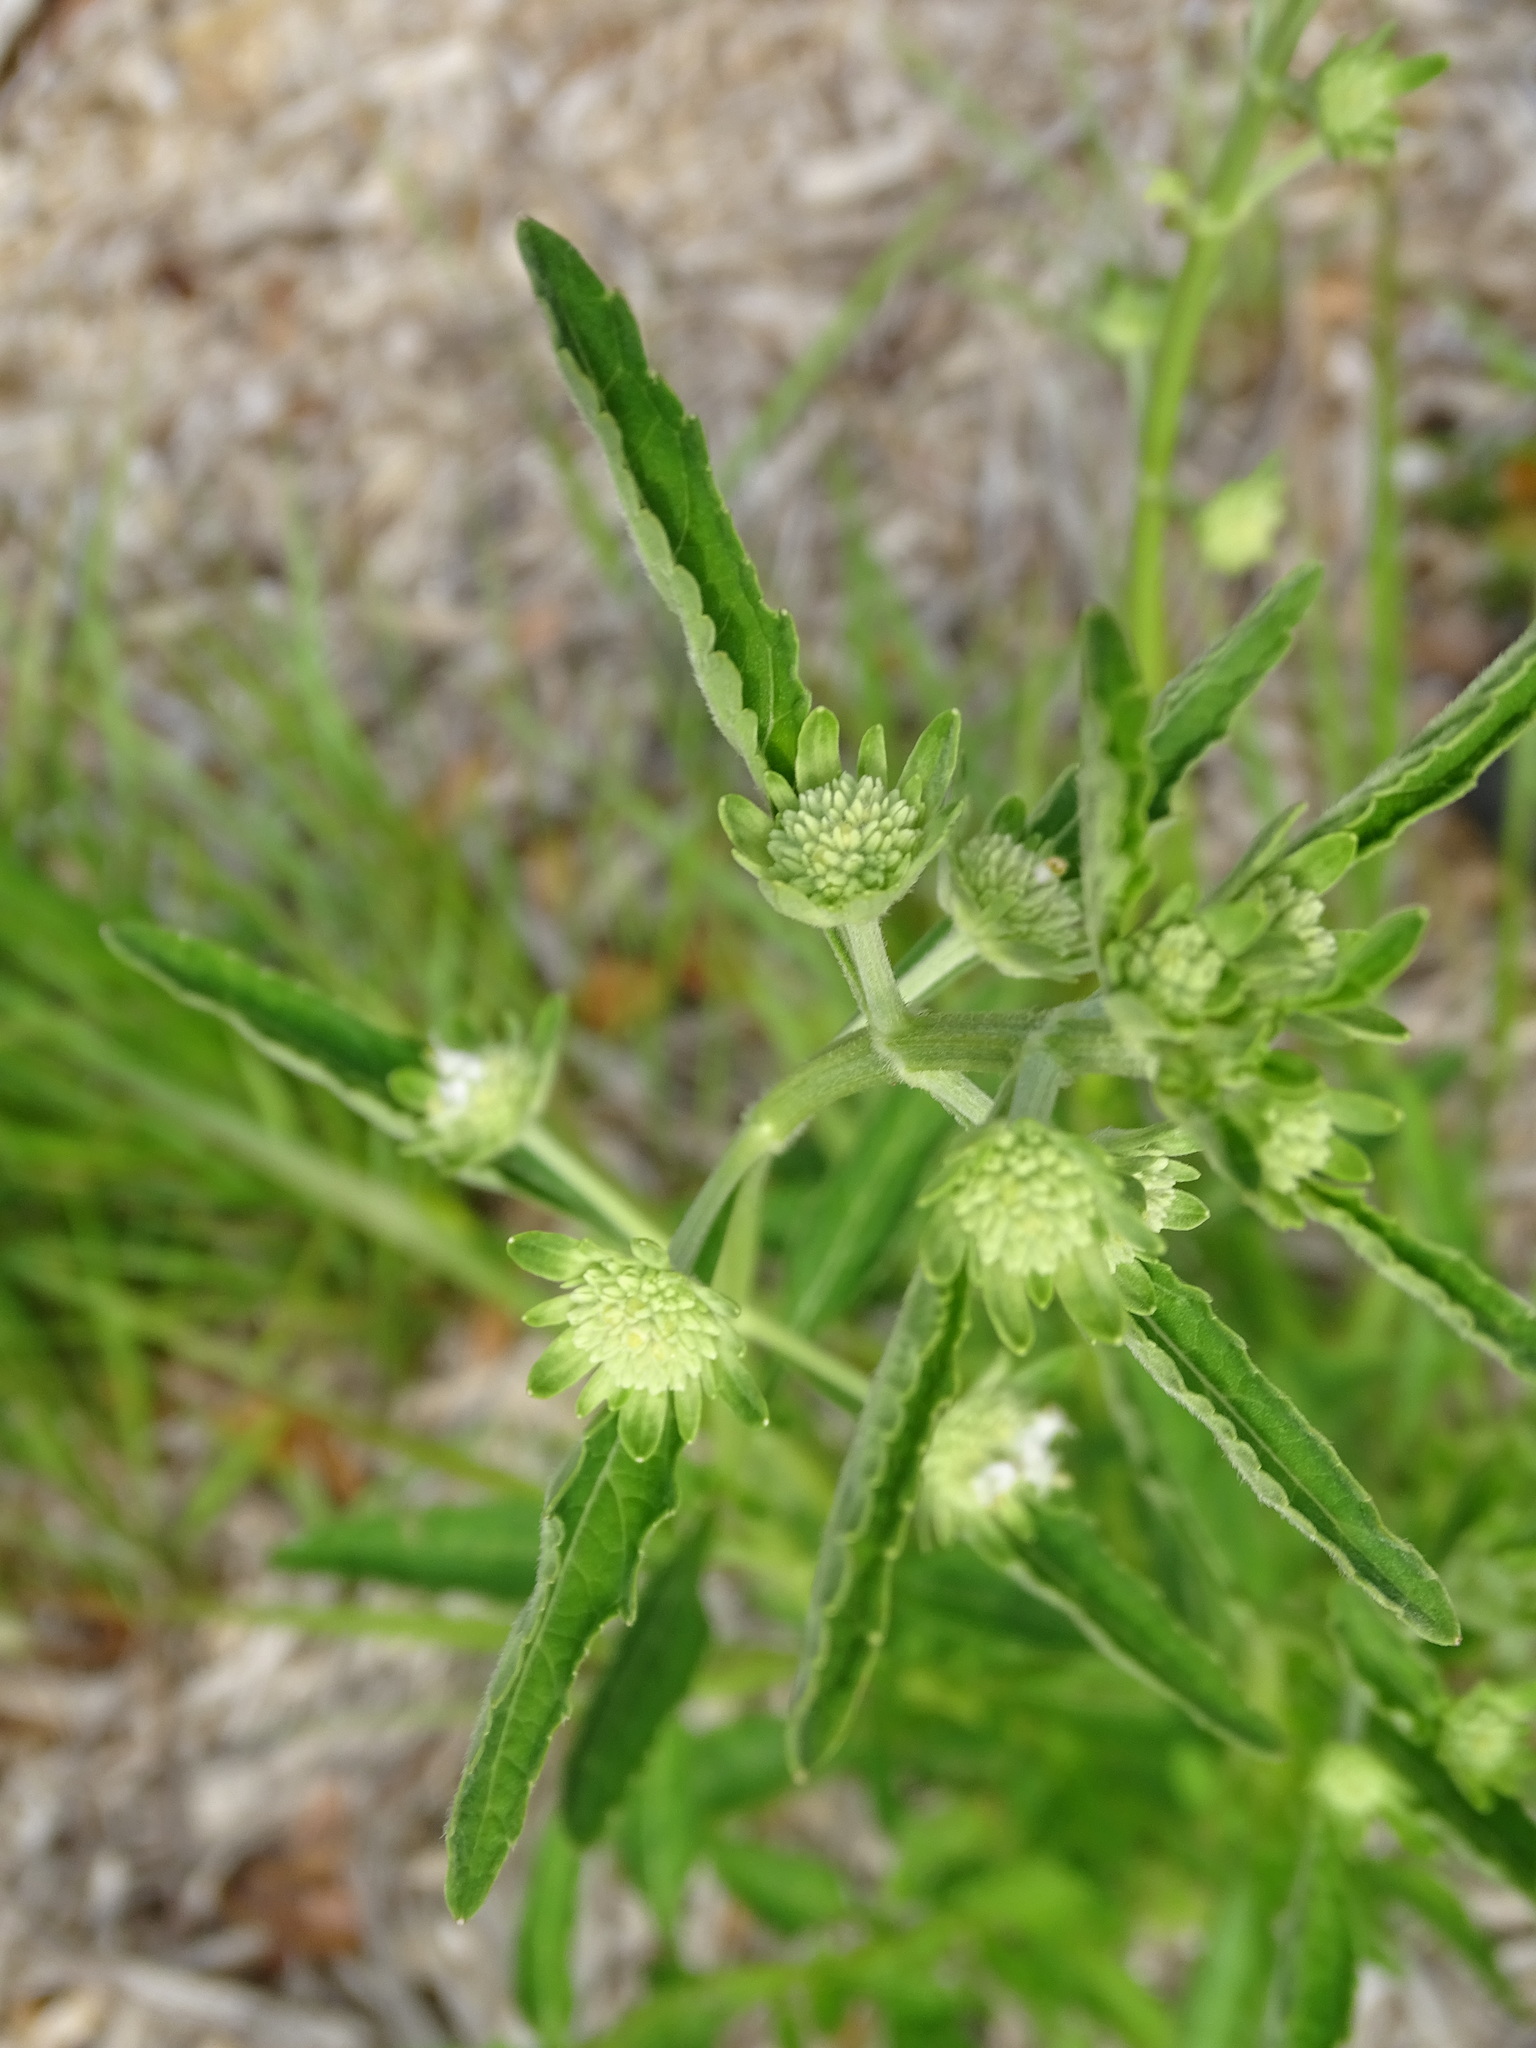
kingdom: Plantae
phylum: Tracheophyta
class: Magnoliopsida
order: Lamiales
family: Lamiaceae
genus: Hyptis
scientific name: Hyptis alata
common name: Cluster bush-mint
